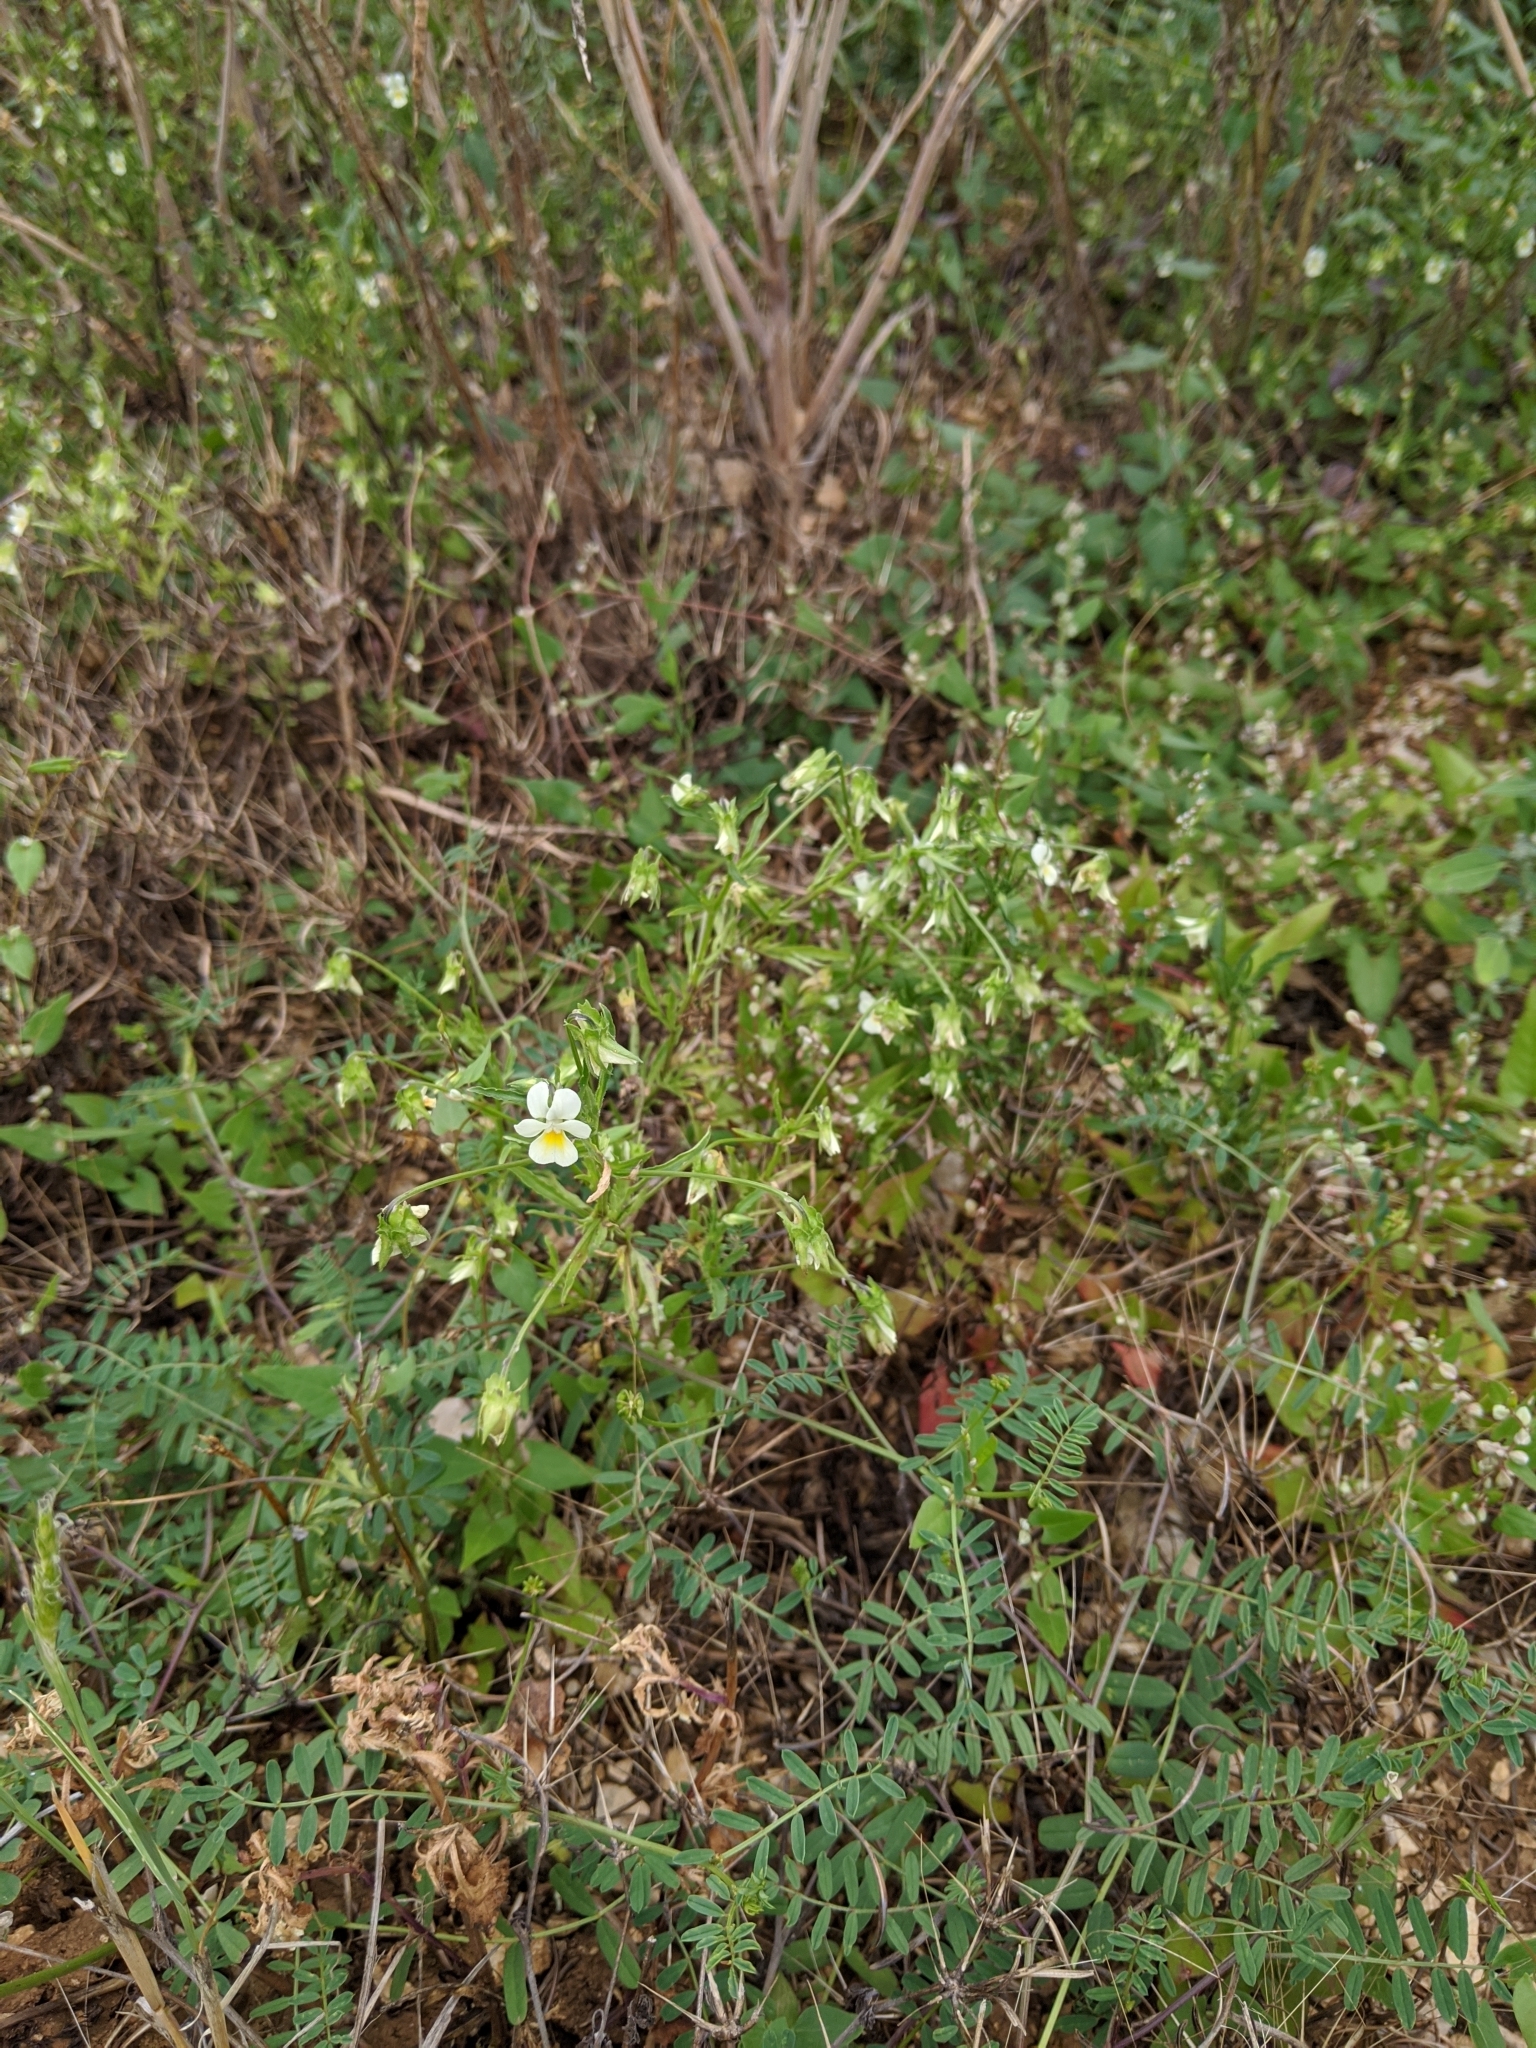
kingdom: Plantae
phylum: Tracheophyta
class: Magnoliopsida
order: Malpighiales
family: Violaceae
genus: Viola
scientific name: Viola arvensis
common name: Field pansy
